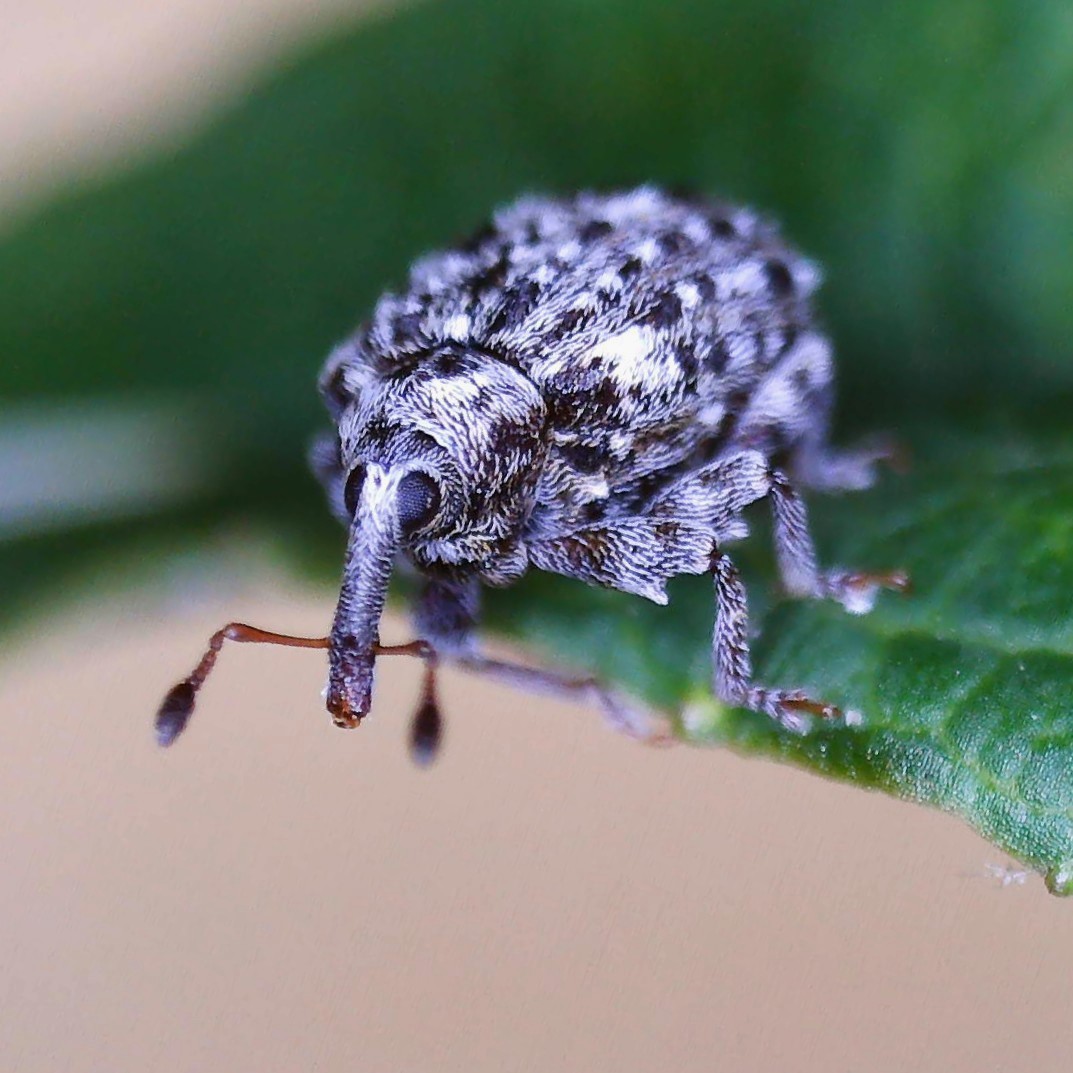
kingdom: Animalia
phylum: Arthropoda
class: Insecta
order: Coleoptera
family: Curculionidae
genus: Cleopus
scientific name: Cleopus pulchellus
